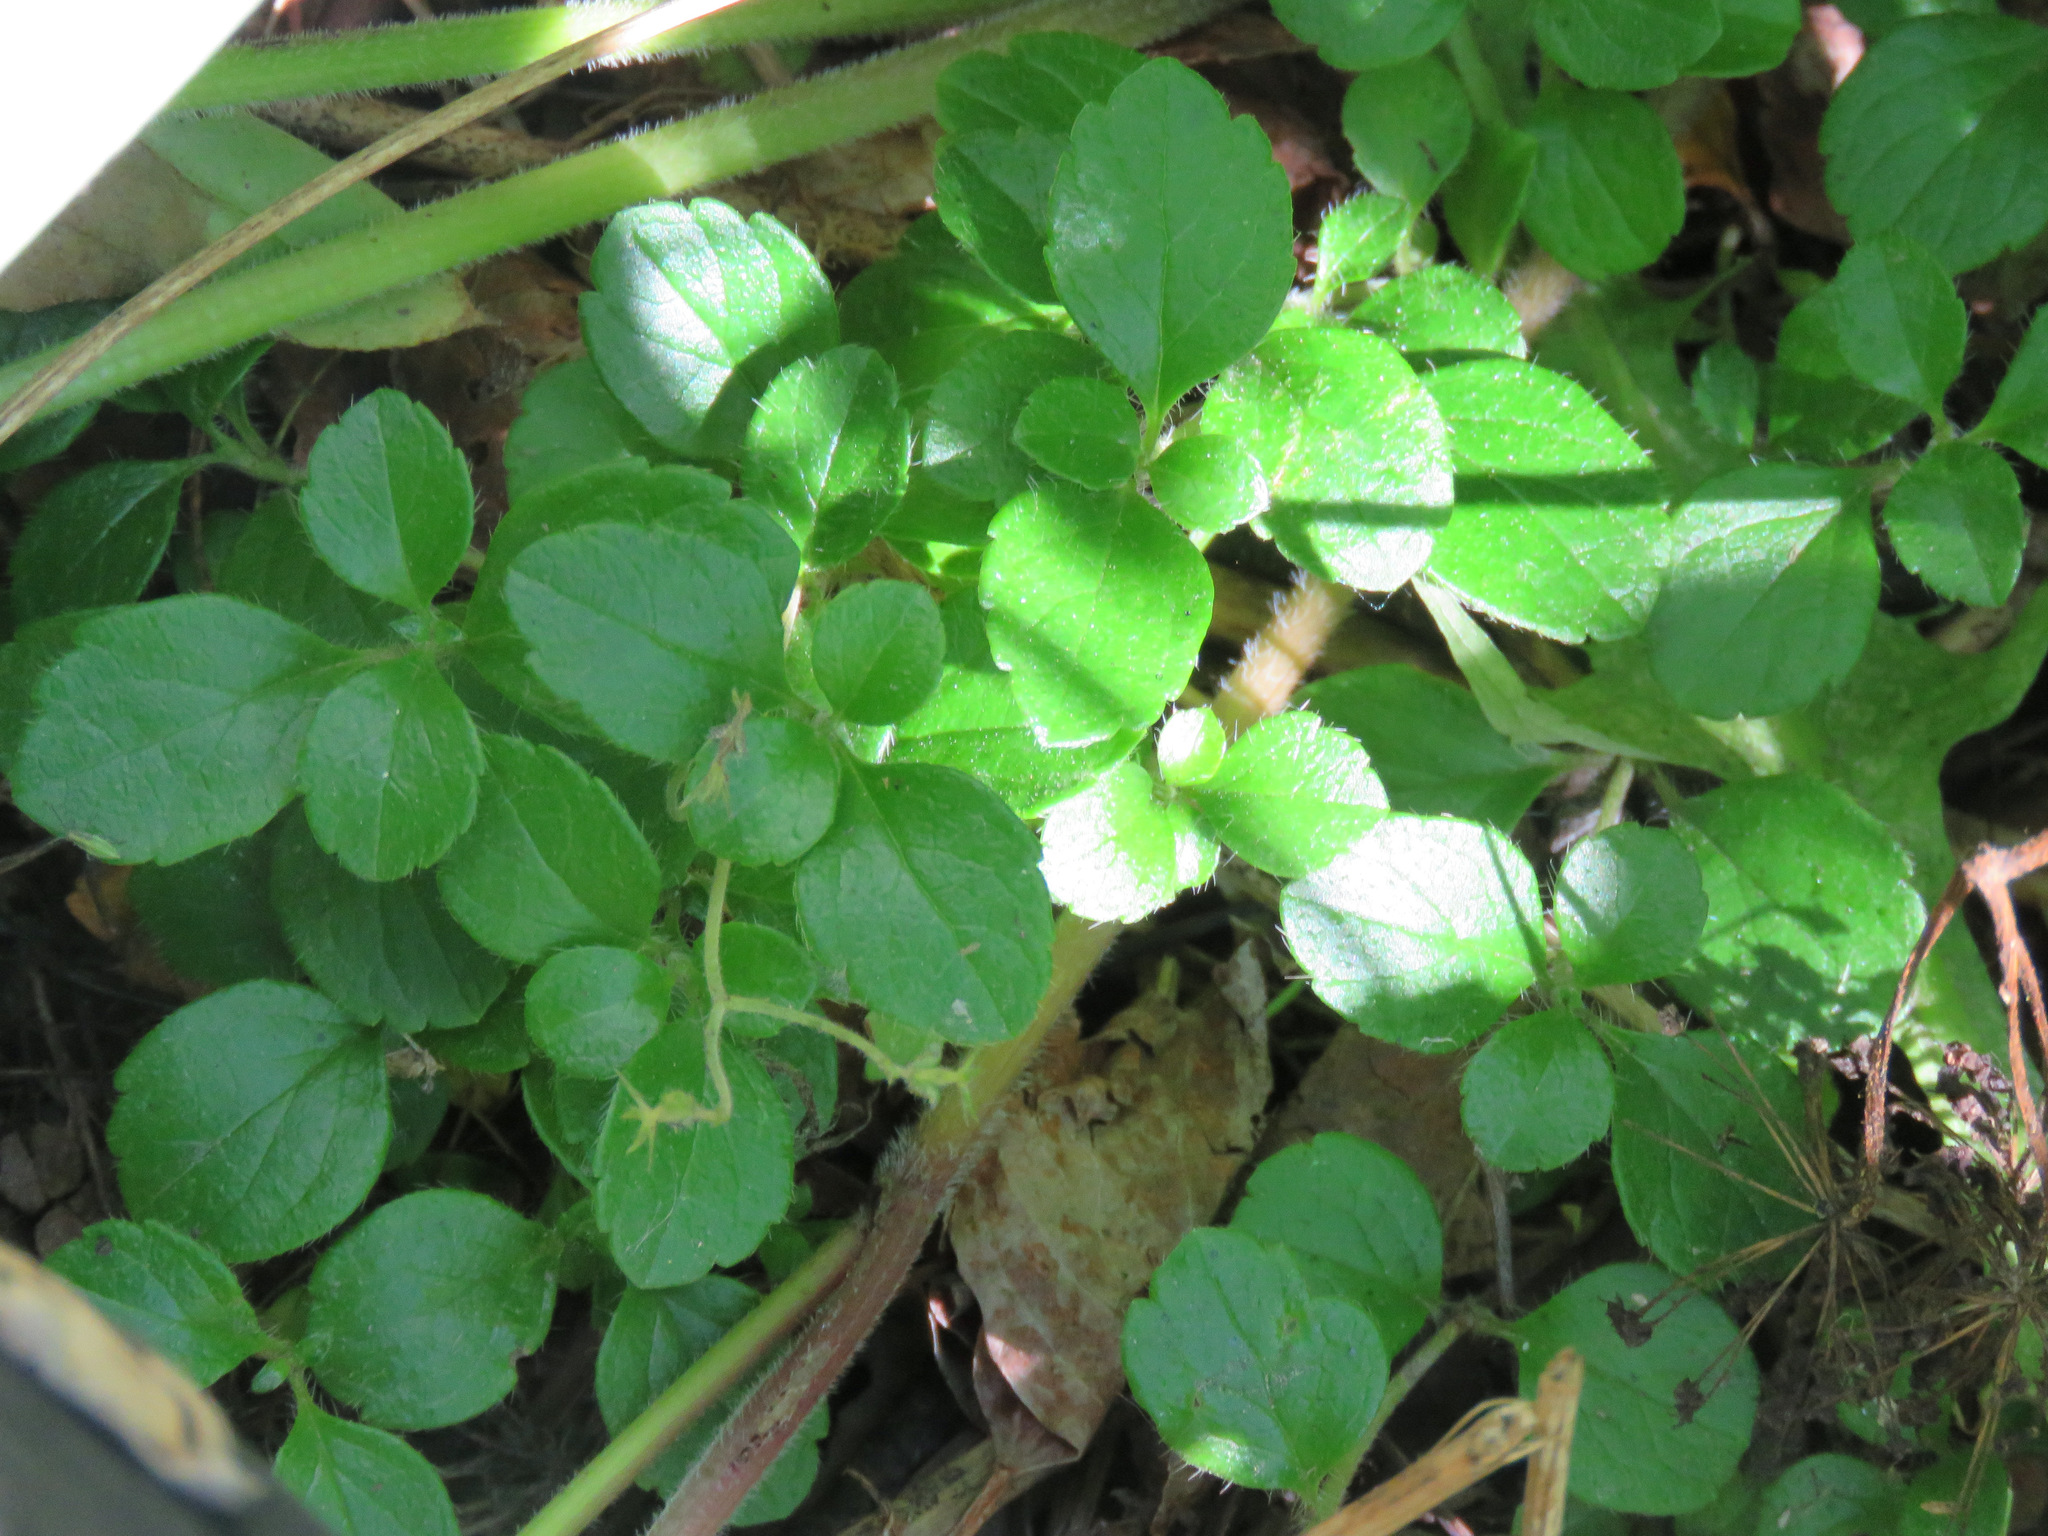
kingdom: Plantae
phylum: Tracheophyta
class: Magnoliopsida
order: Dipsacales
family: Caprifoliaceae
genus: Linnaea
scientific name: Linnaea borealis
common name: Twinflower
